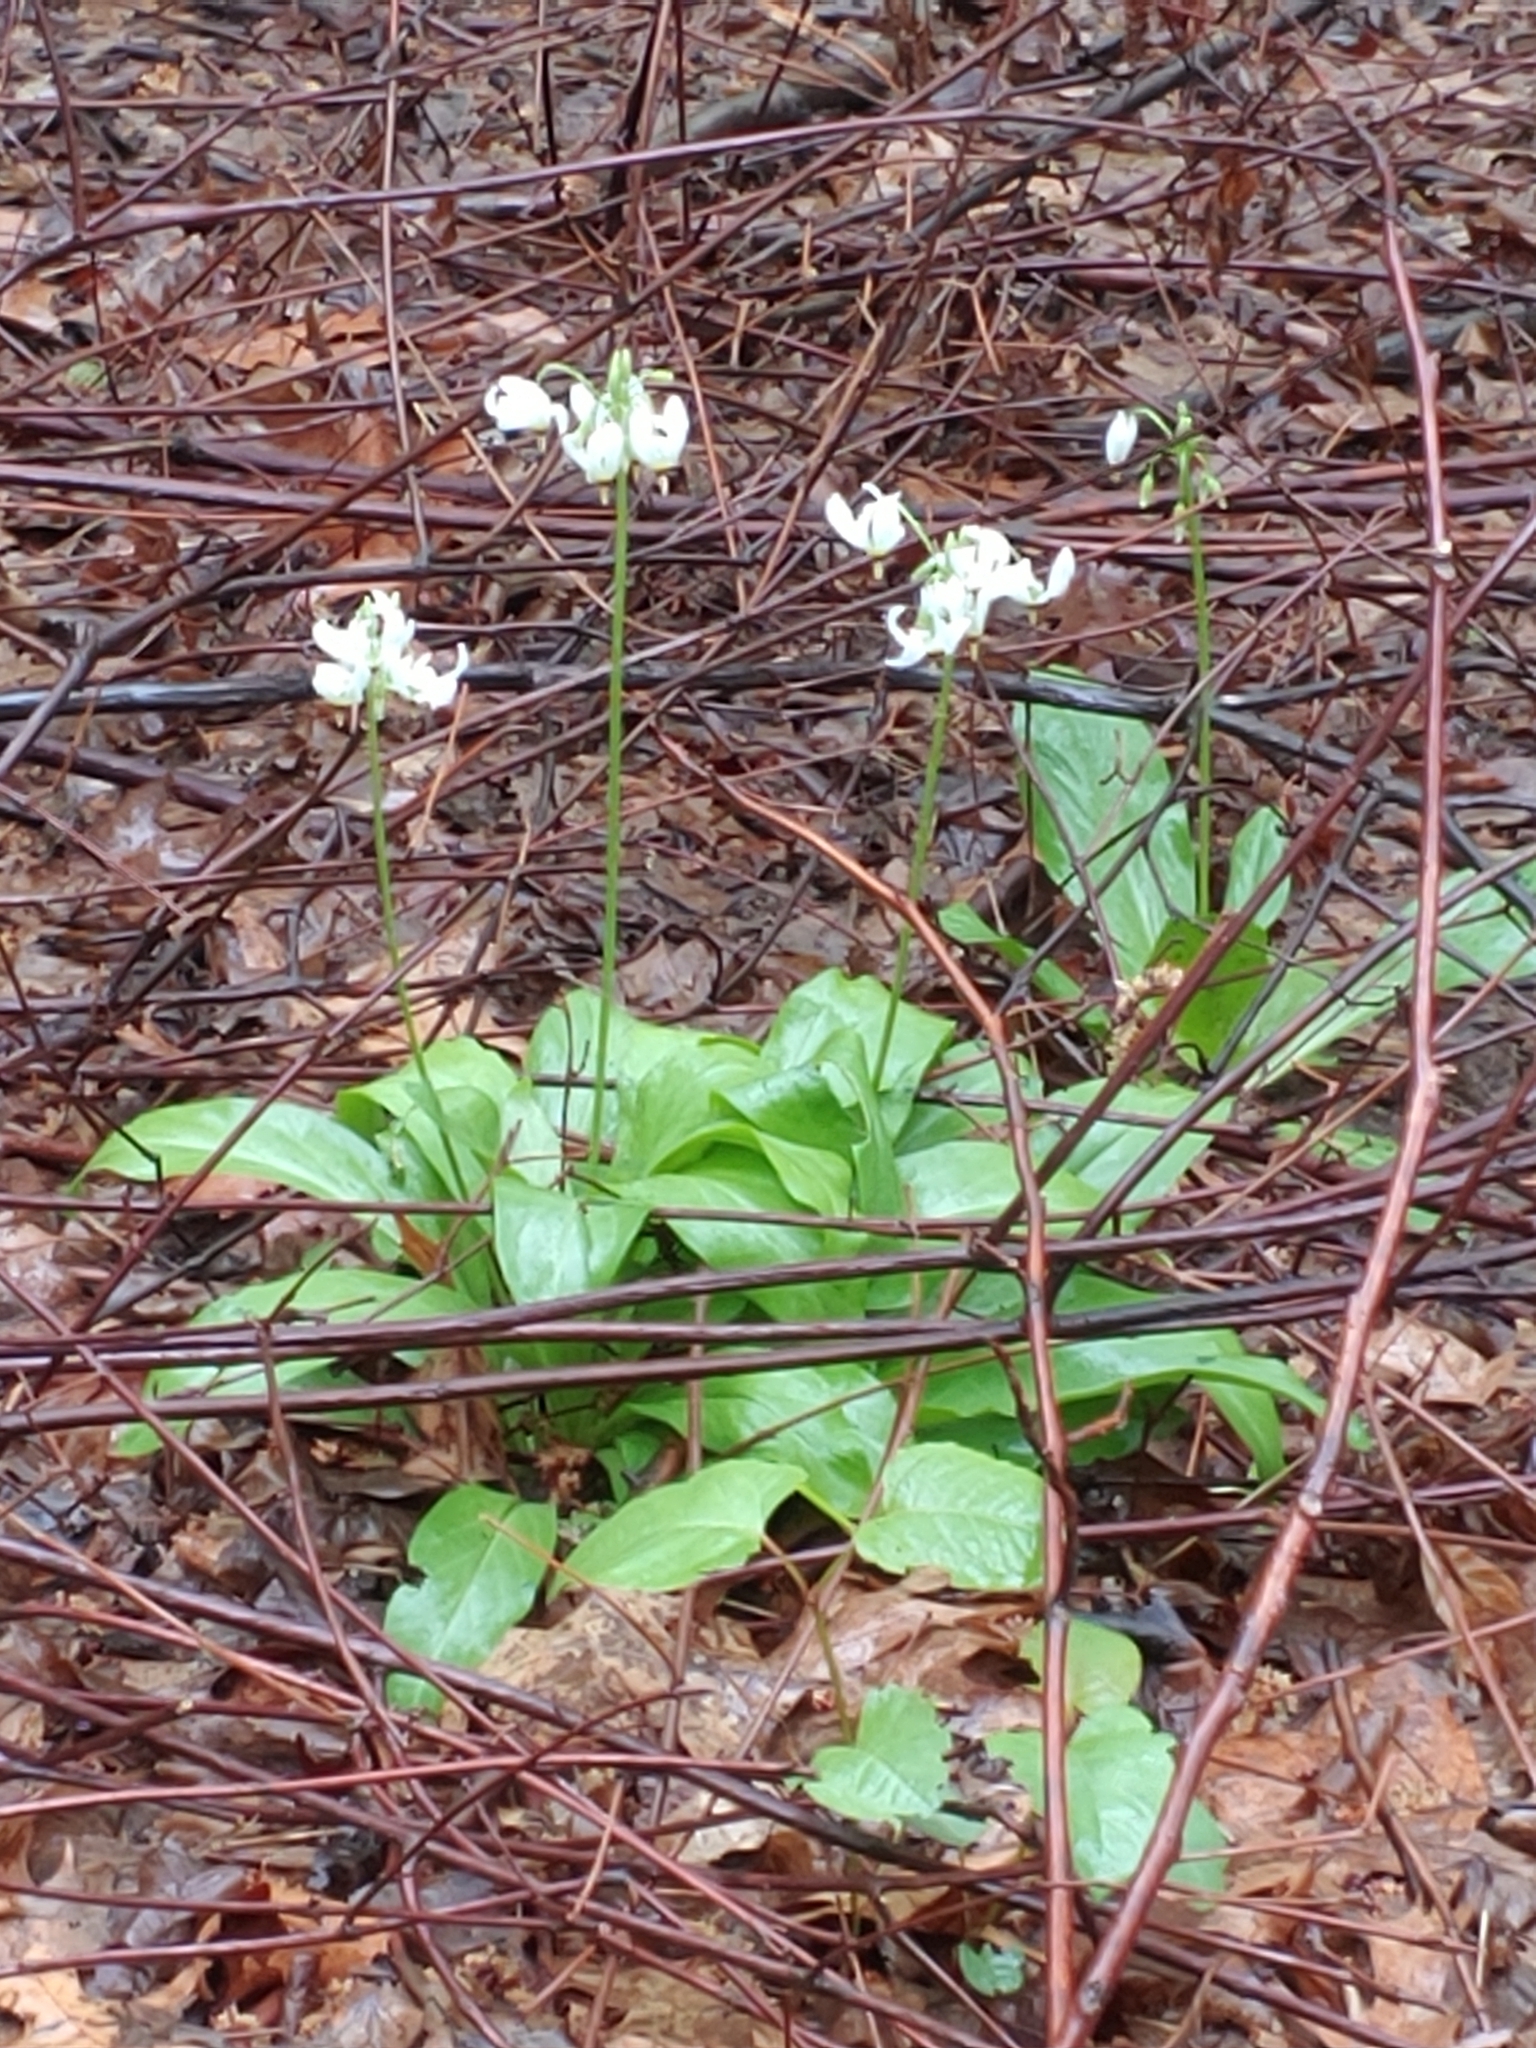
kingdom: Plantae
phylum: Tracheophyta
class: Magnoliopsida
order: Ericales
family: Primulaceae
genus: Dodecatheon
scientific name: Dodecatheon meadia
